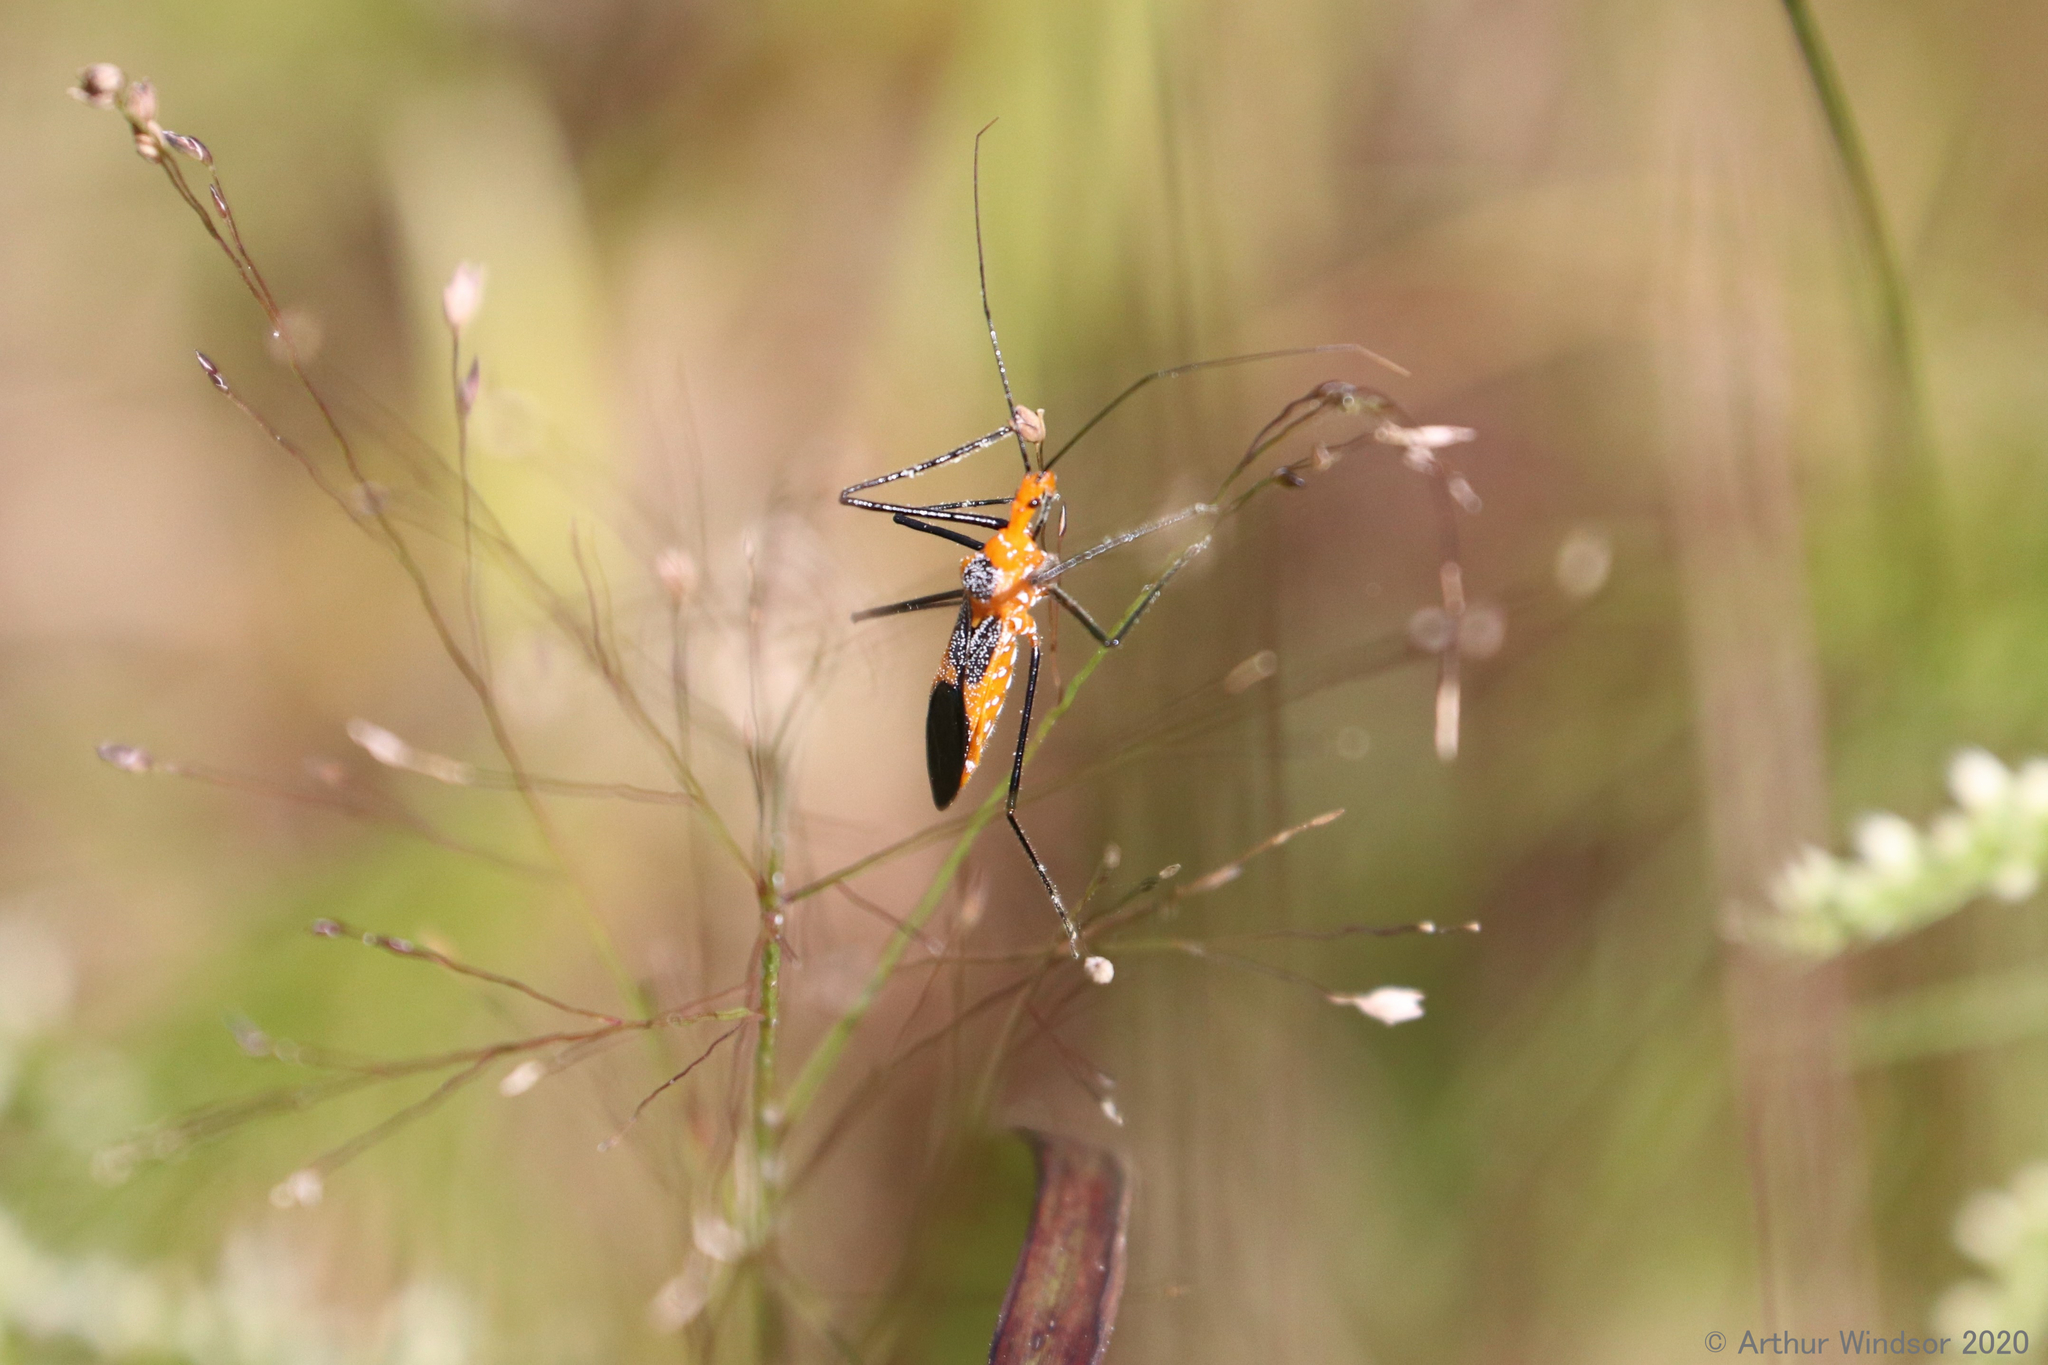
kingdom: Animalia
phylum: Arthropoda
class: Insecta
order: Hemiptera
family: Reduviidae
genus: Zelus
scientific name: Zelus longipes
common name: Milkweed assassin bug
